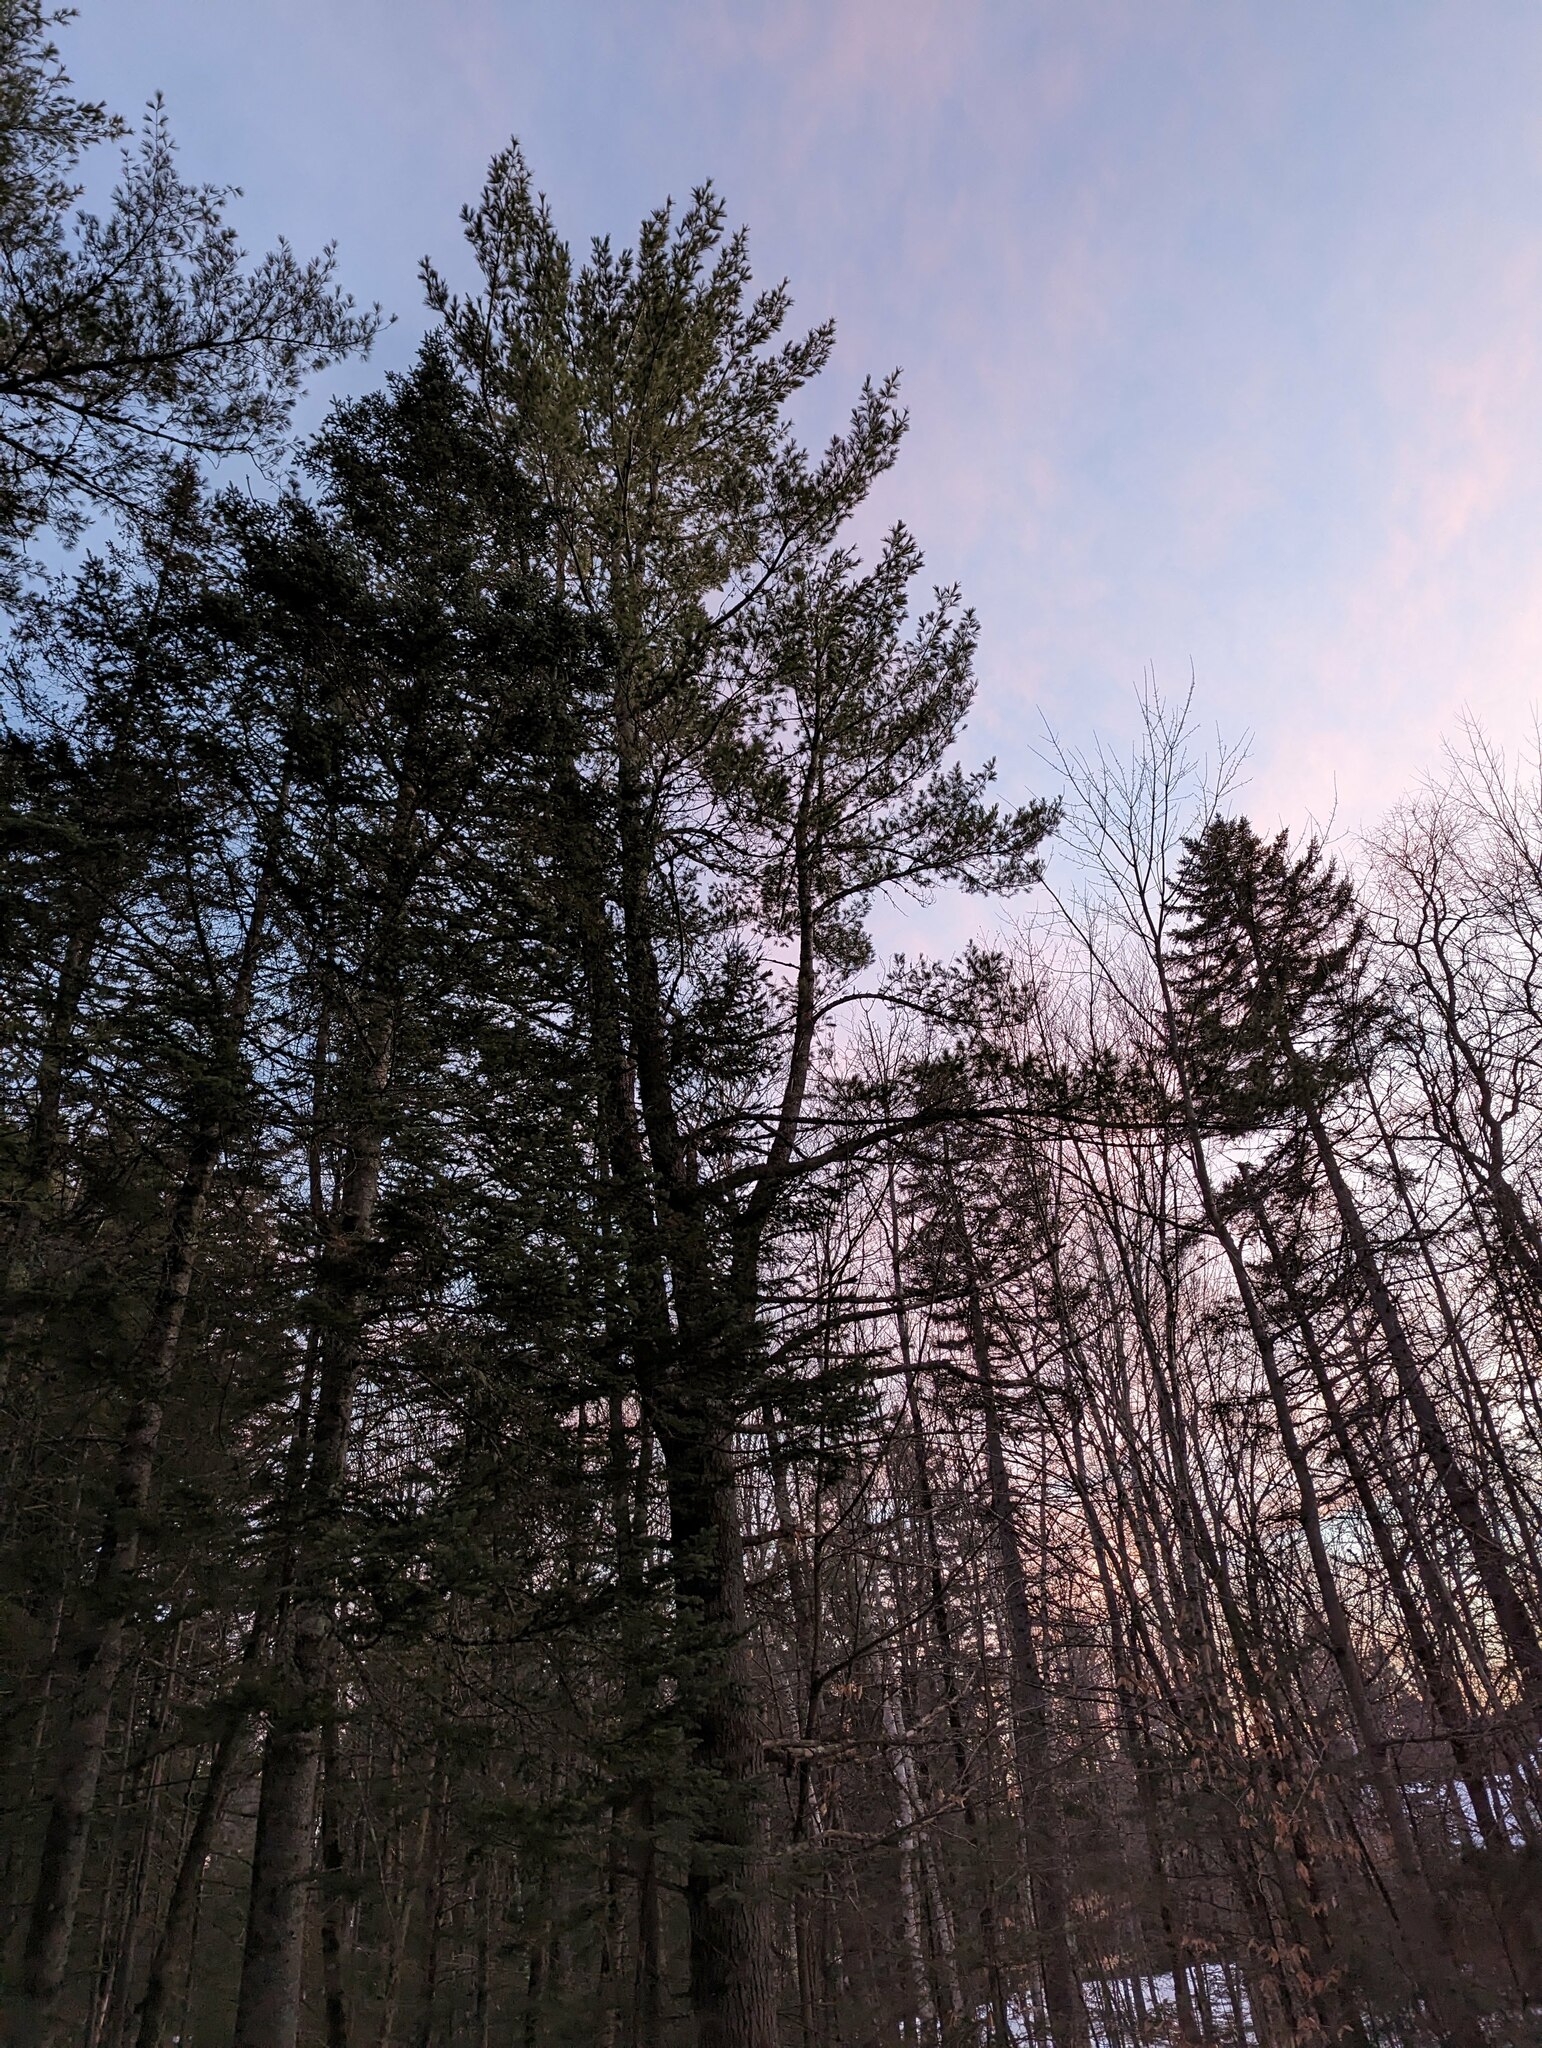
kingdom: Plantae
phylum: Tracheophyta
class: Pinopsida
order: Pinales
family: Pinaceae
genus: Pinus
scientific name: Pinus strobus
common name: Weymouth pine
